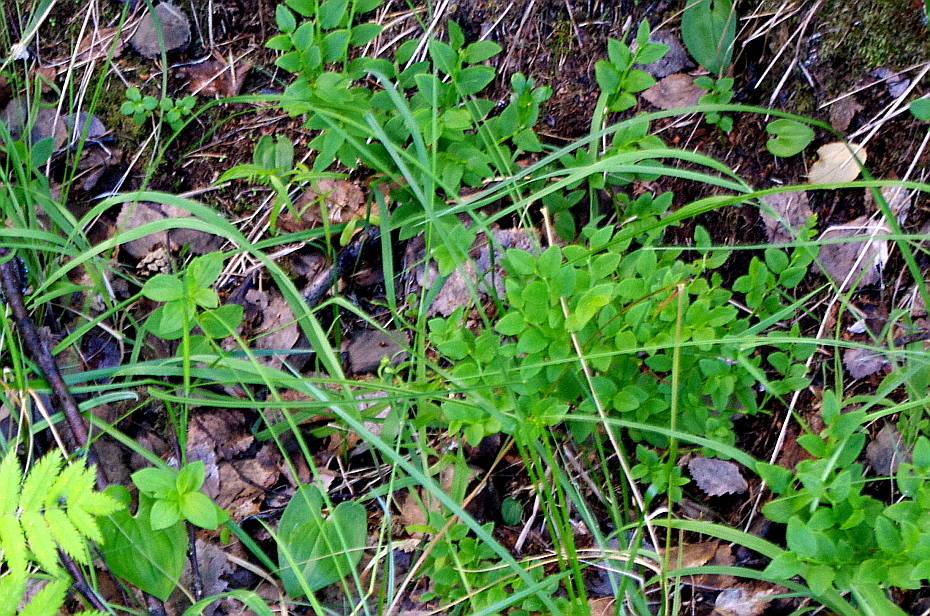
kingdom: Plantae
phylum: Tracheophyta
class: Magnoliopsida
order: Ericales
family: Ericaceae
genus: Vaccinium
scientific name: Vaccinium myrtillus
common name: Bilberry
